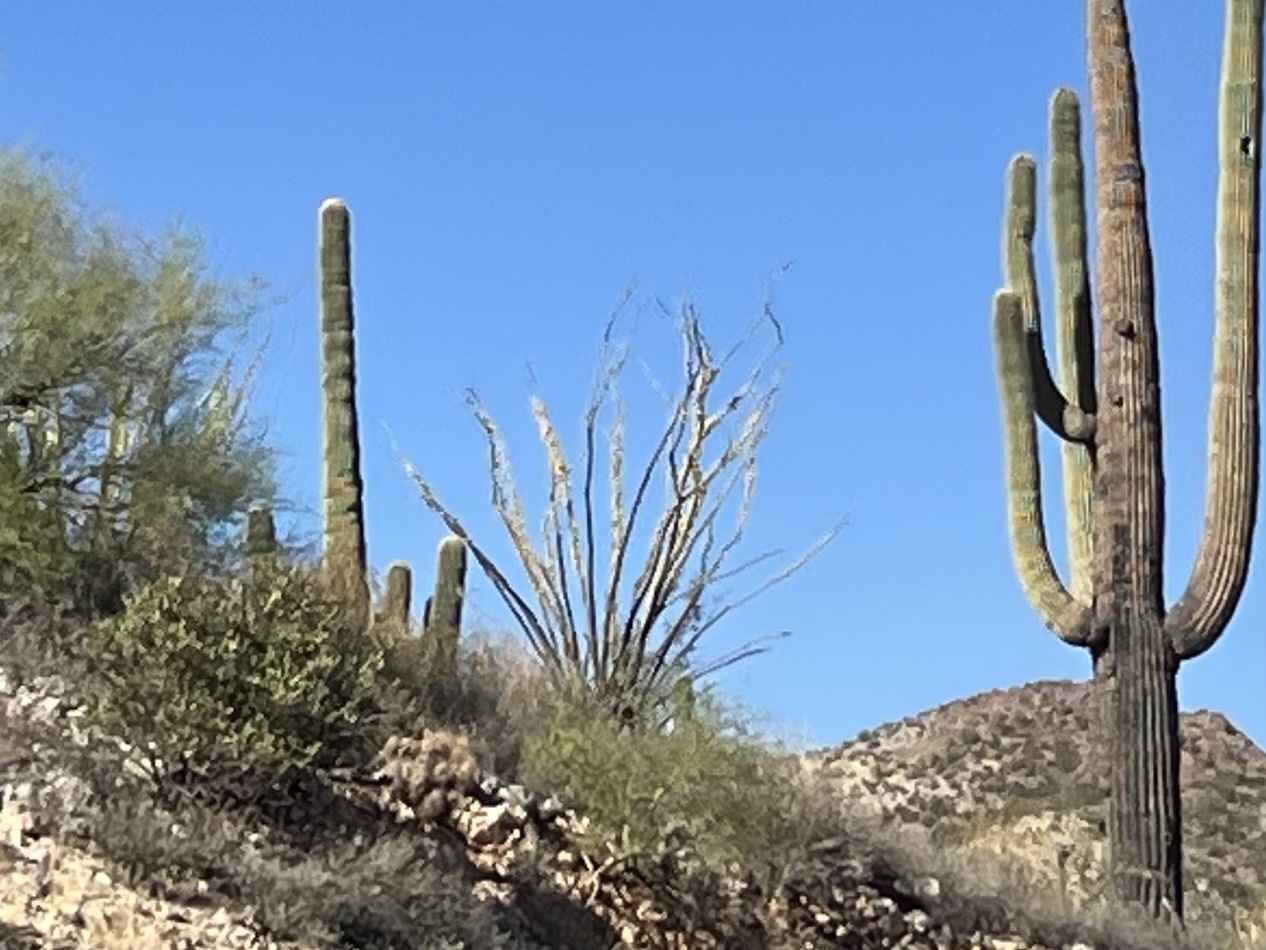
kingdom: Plantae
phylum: Tracheophyta
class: Magnoliopsida
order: Ericales
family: Fouquieriaceae
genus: Fouquieria
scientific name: Fouquieria splendens
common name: Vine-cactus
